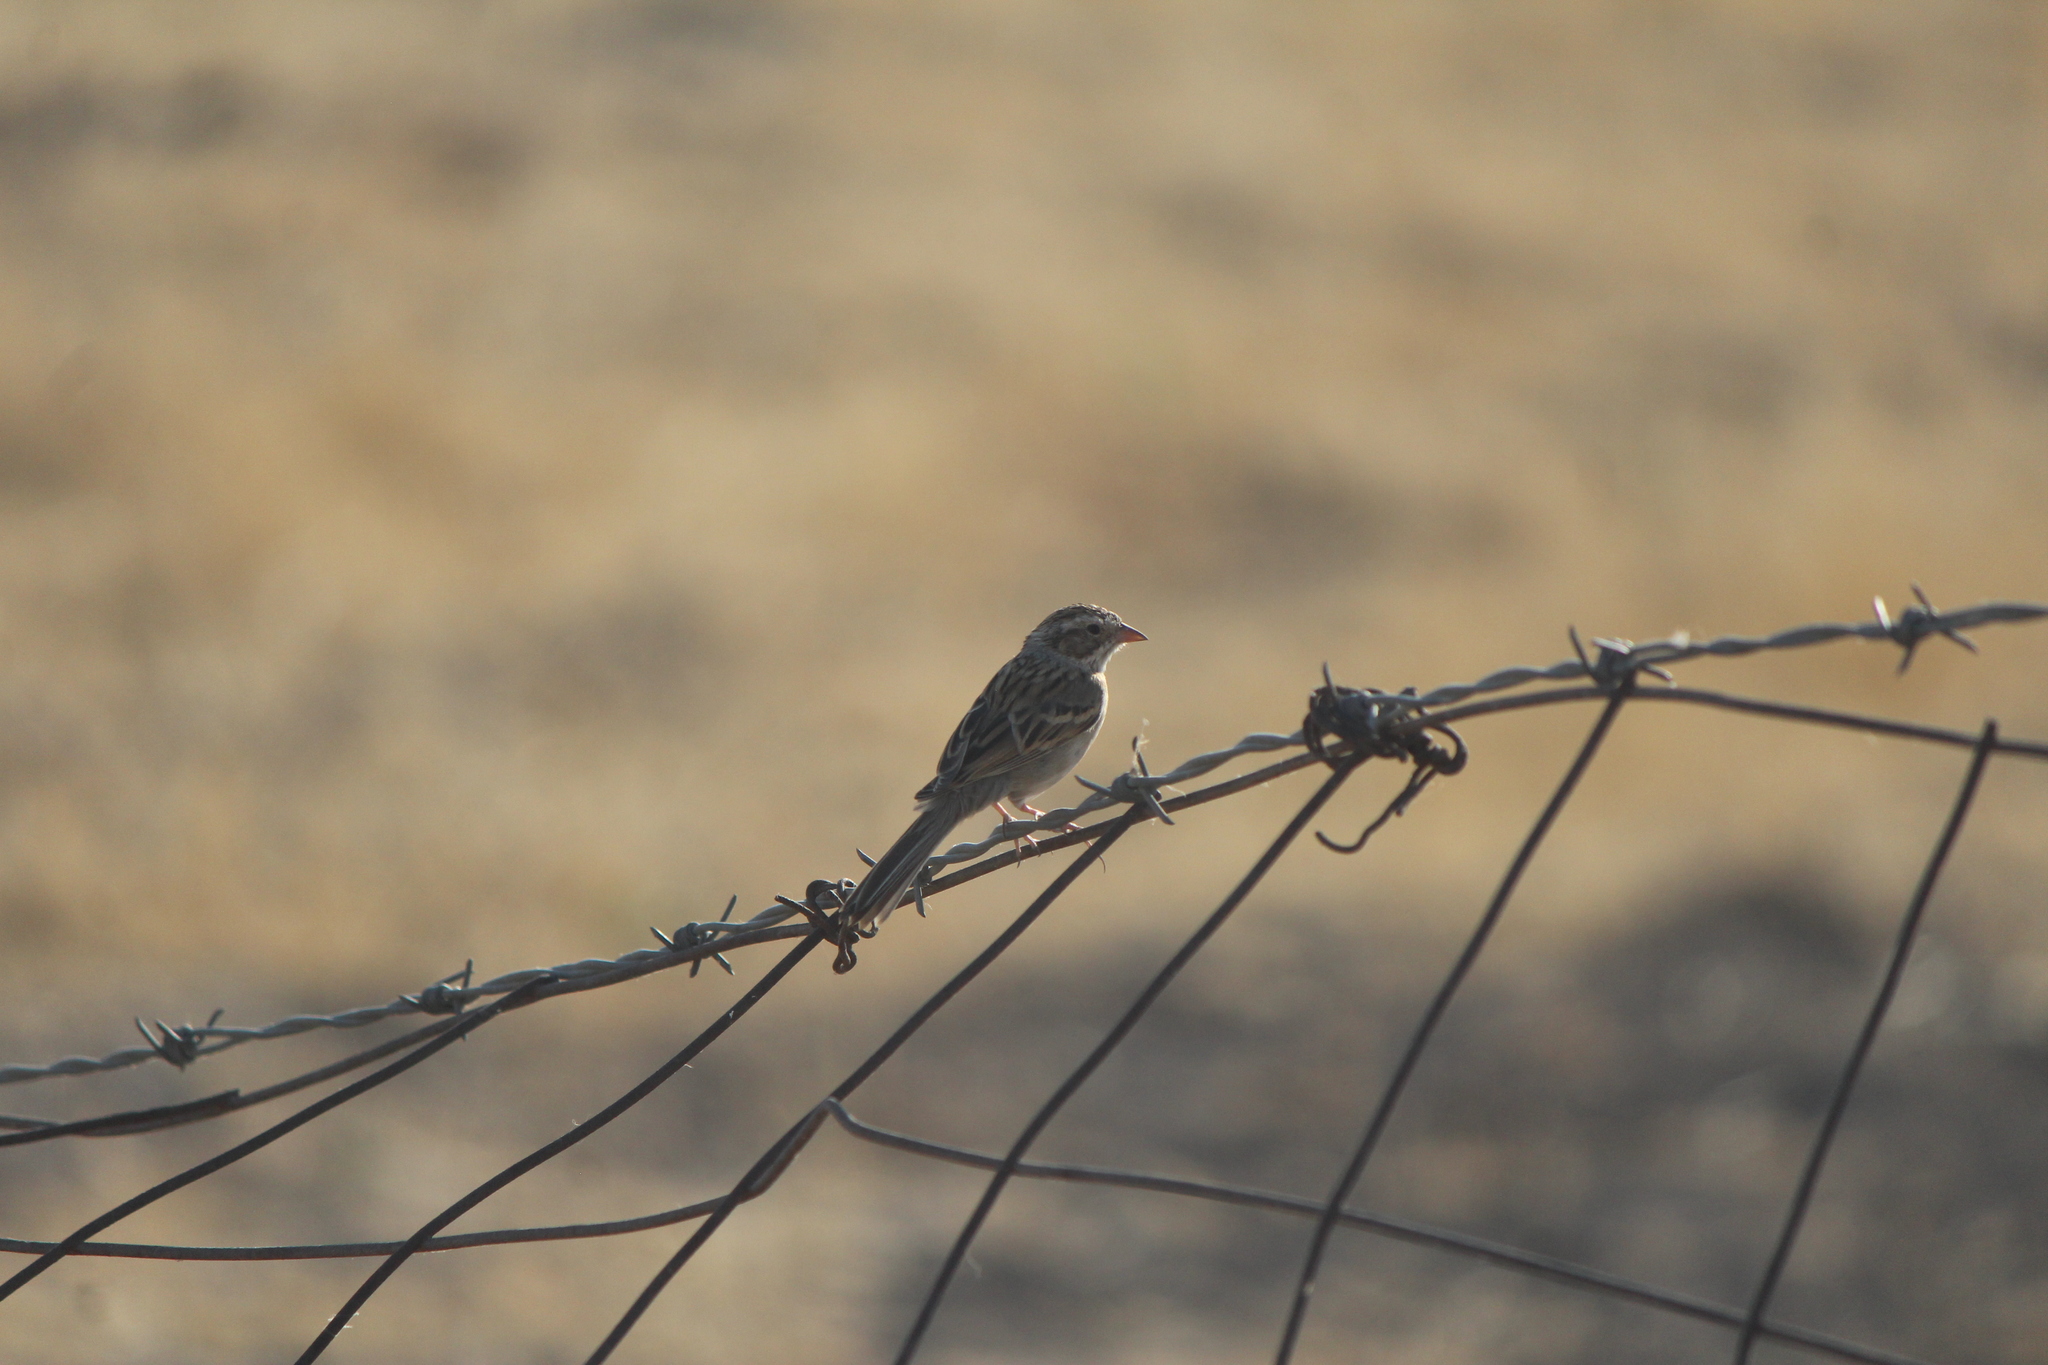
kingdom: Animalia
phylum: Chordata
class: Aves
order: Passeriformes
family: Passerellidae
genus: Spizella
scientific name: Spizella pallida
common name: Clay-colored sparrow
